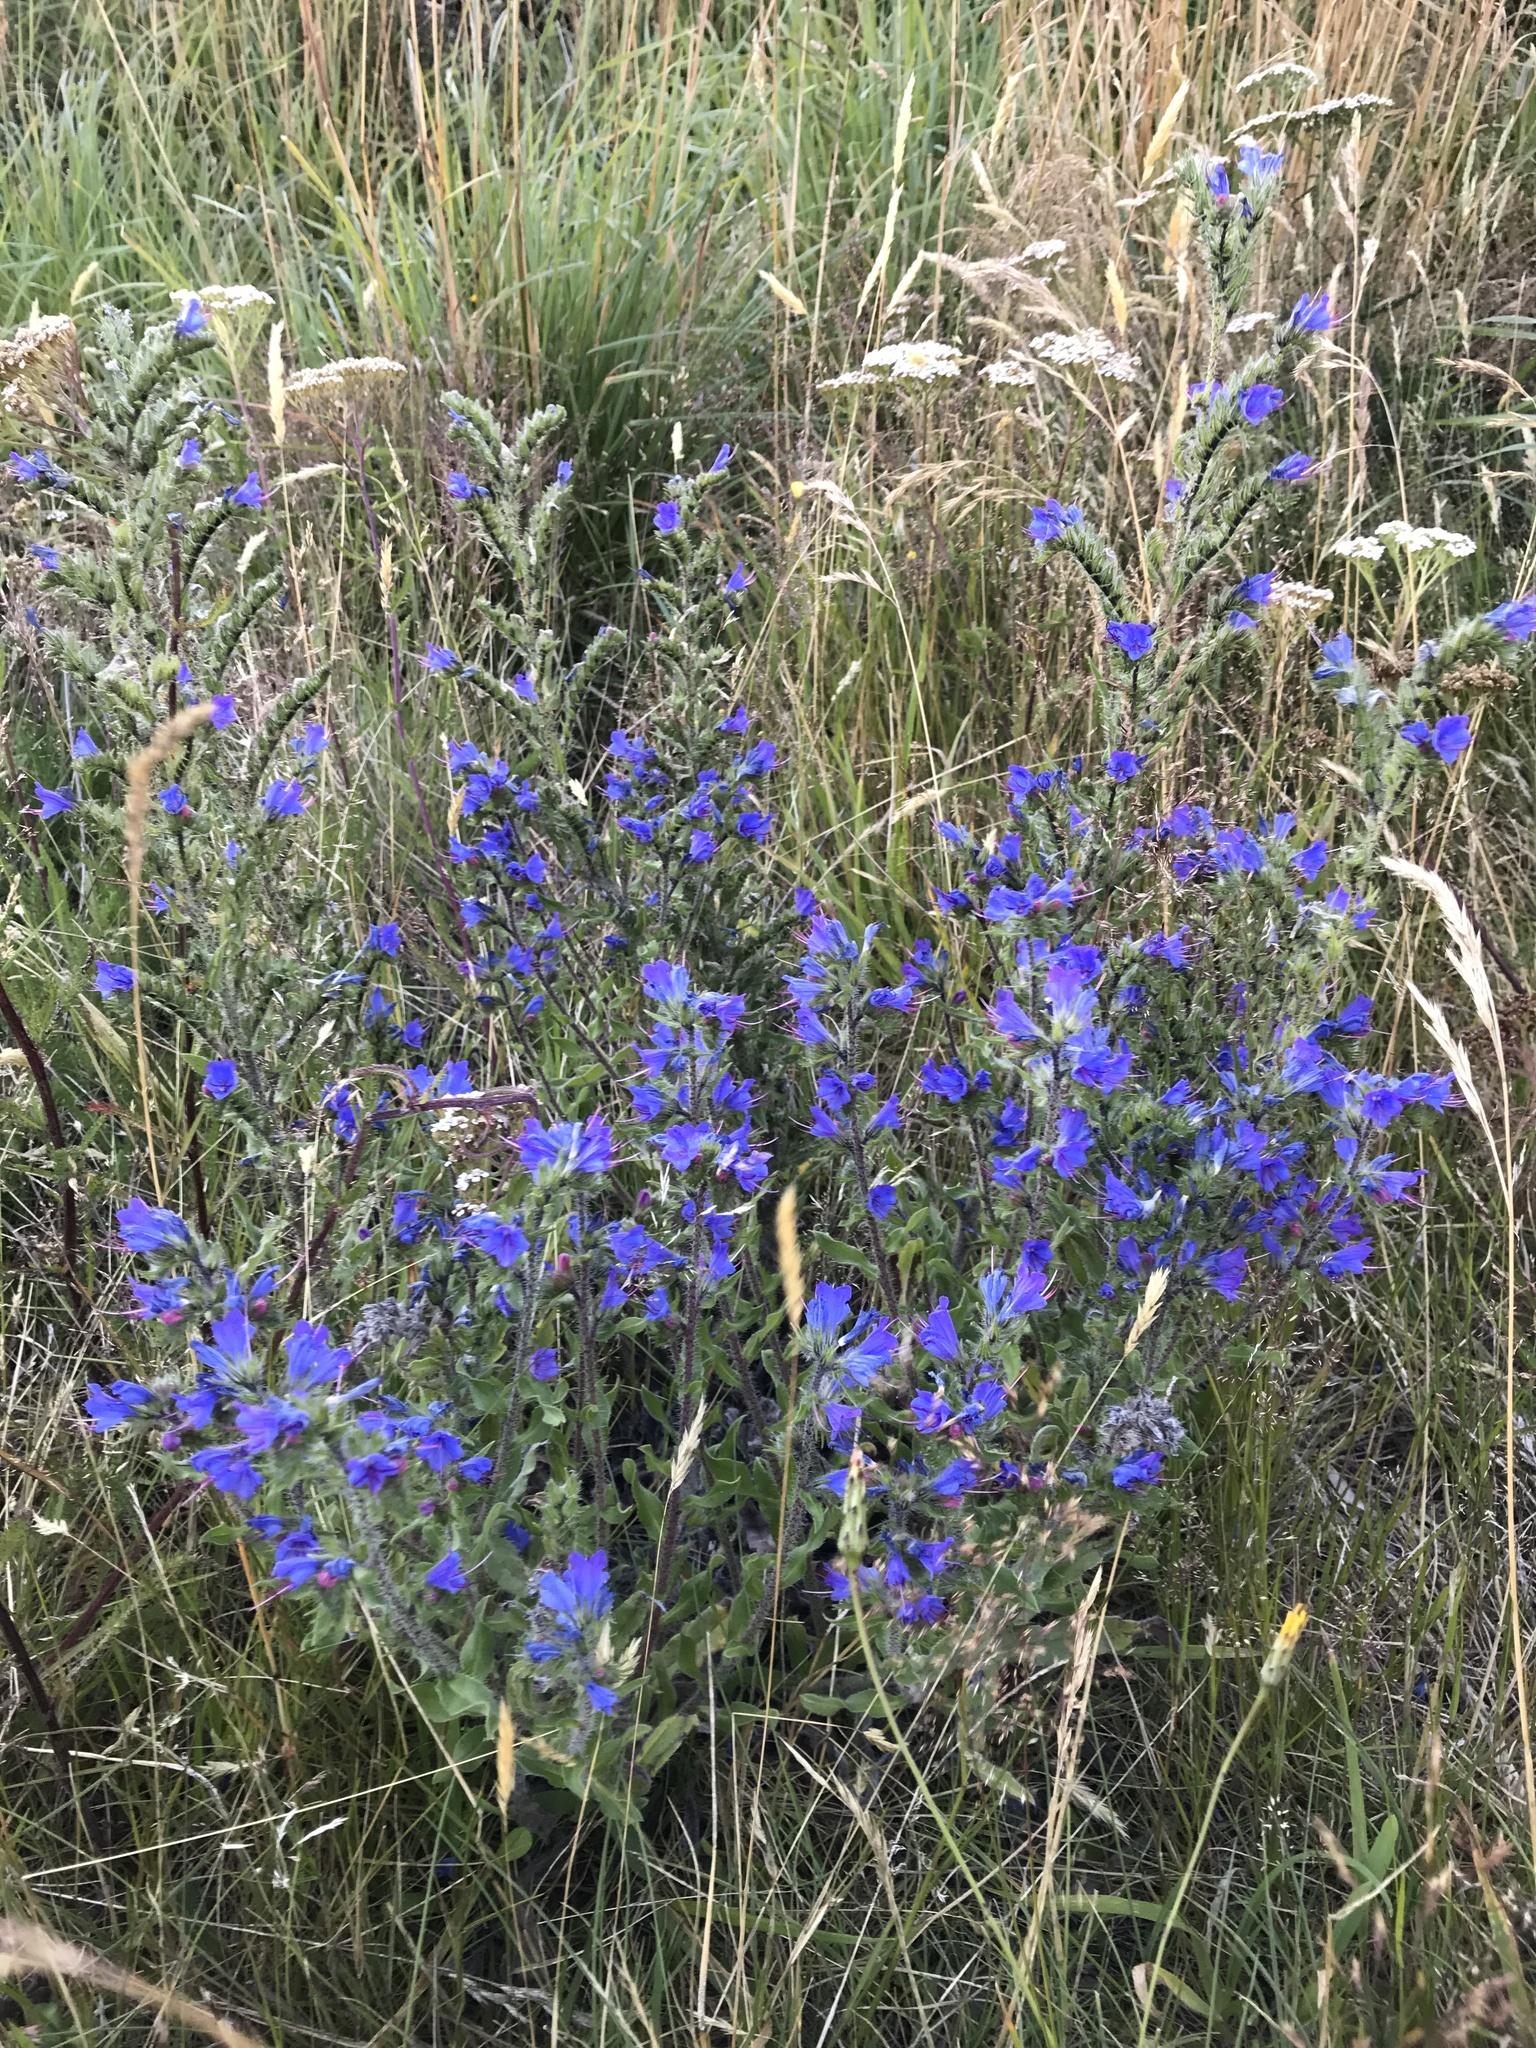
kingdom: Plantae
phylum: Tracheophyta
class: Magnoliopsida
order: Boraginales
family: Boraginaceae
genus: Echium
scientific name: Echium vulgare
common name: Common viper's bugloss
